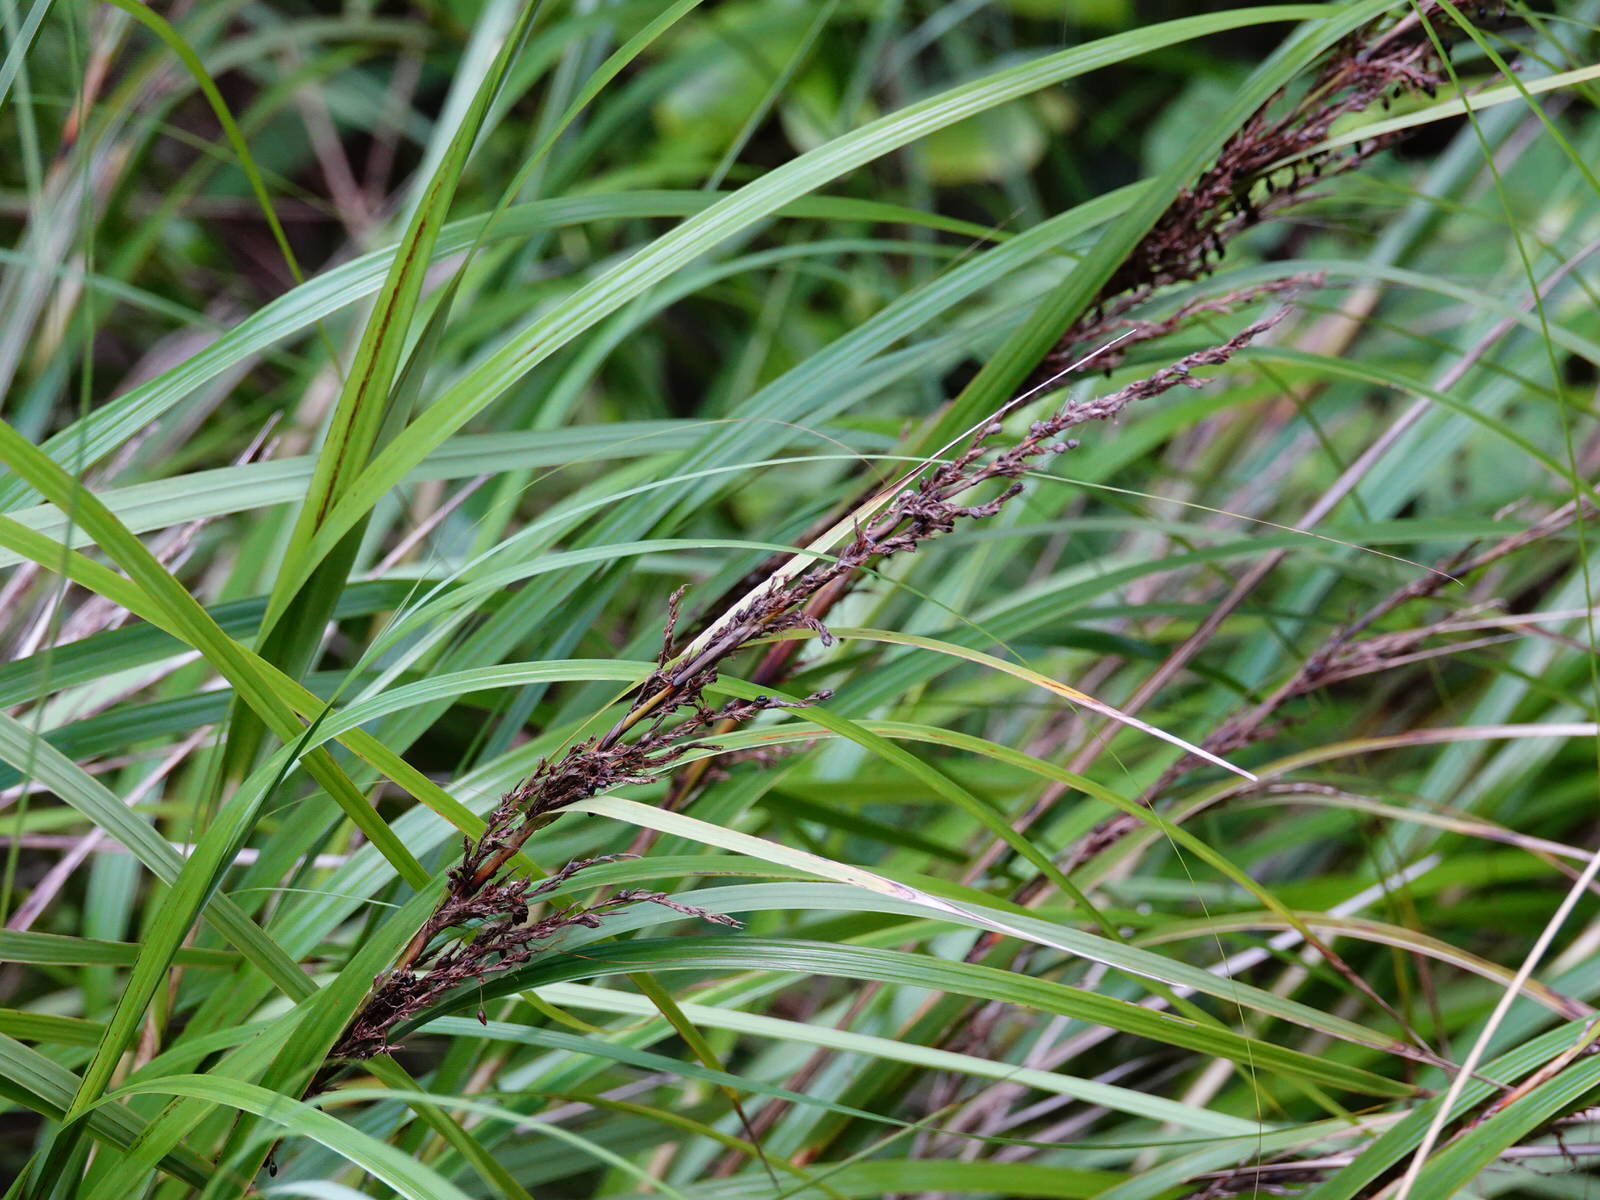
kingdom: Plantae
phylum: Tracheophyta
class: Liliopsida
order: Poales
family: Cyperaceae
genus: Gahnia
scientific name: Gahnia lacera
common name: Sawsedge
